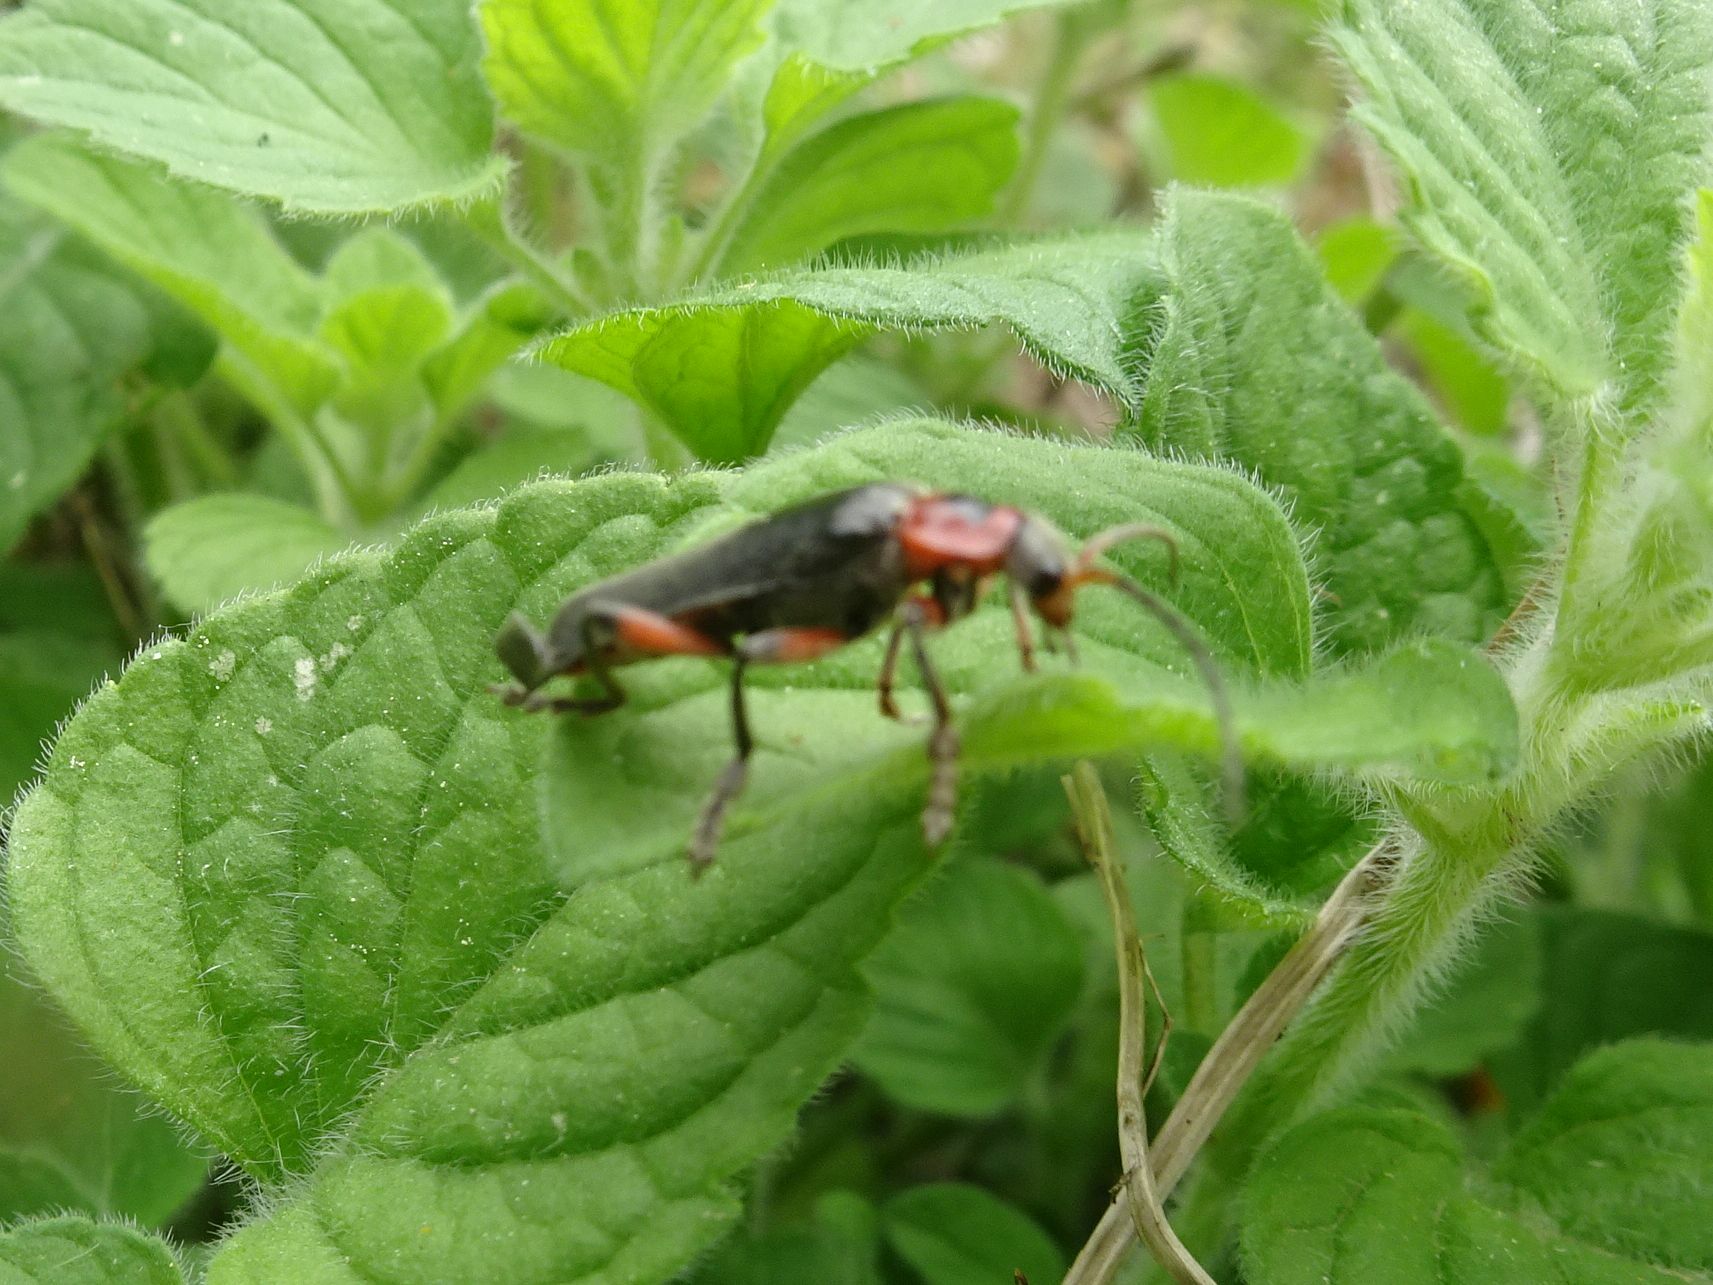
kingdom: Animalia
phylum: Arthropoda
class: Insecta
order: Coleoptera
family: Cantharidae
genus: Cantharis
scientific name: Cantharis rustica
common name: Soldier beetle
